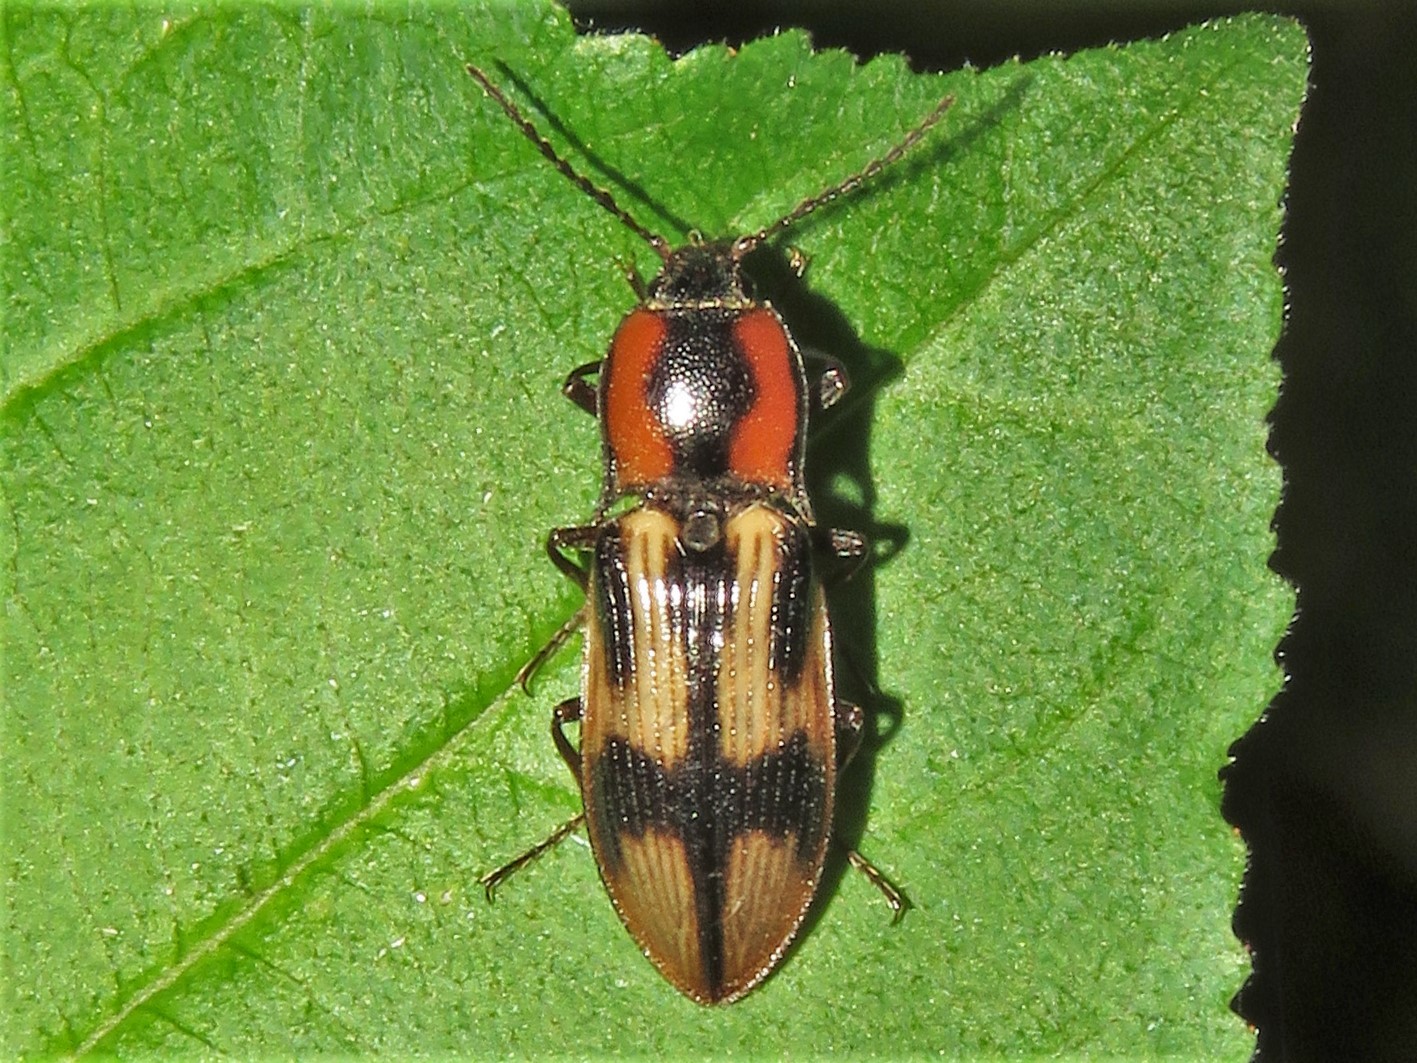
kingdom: Animalia
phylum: Arthropoda
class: Insecta
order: Coleoptera
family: Elateridae
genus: Selatosomus
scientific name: Selatosomus pulcher
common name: Noble click beetle
